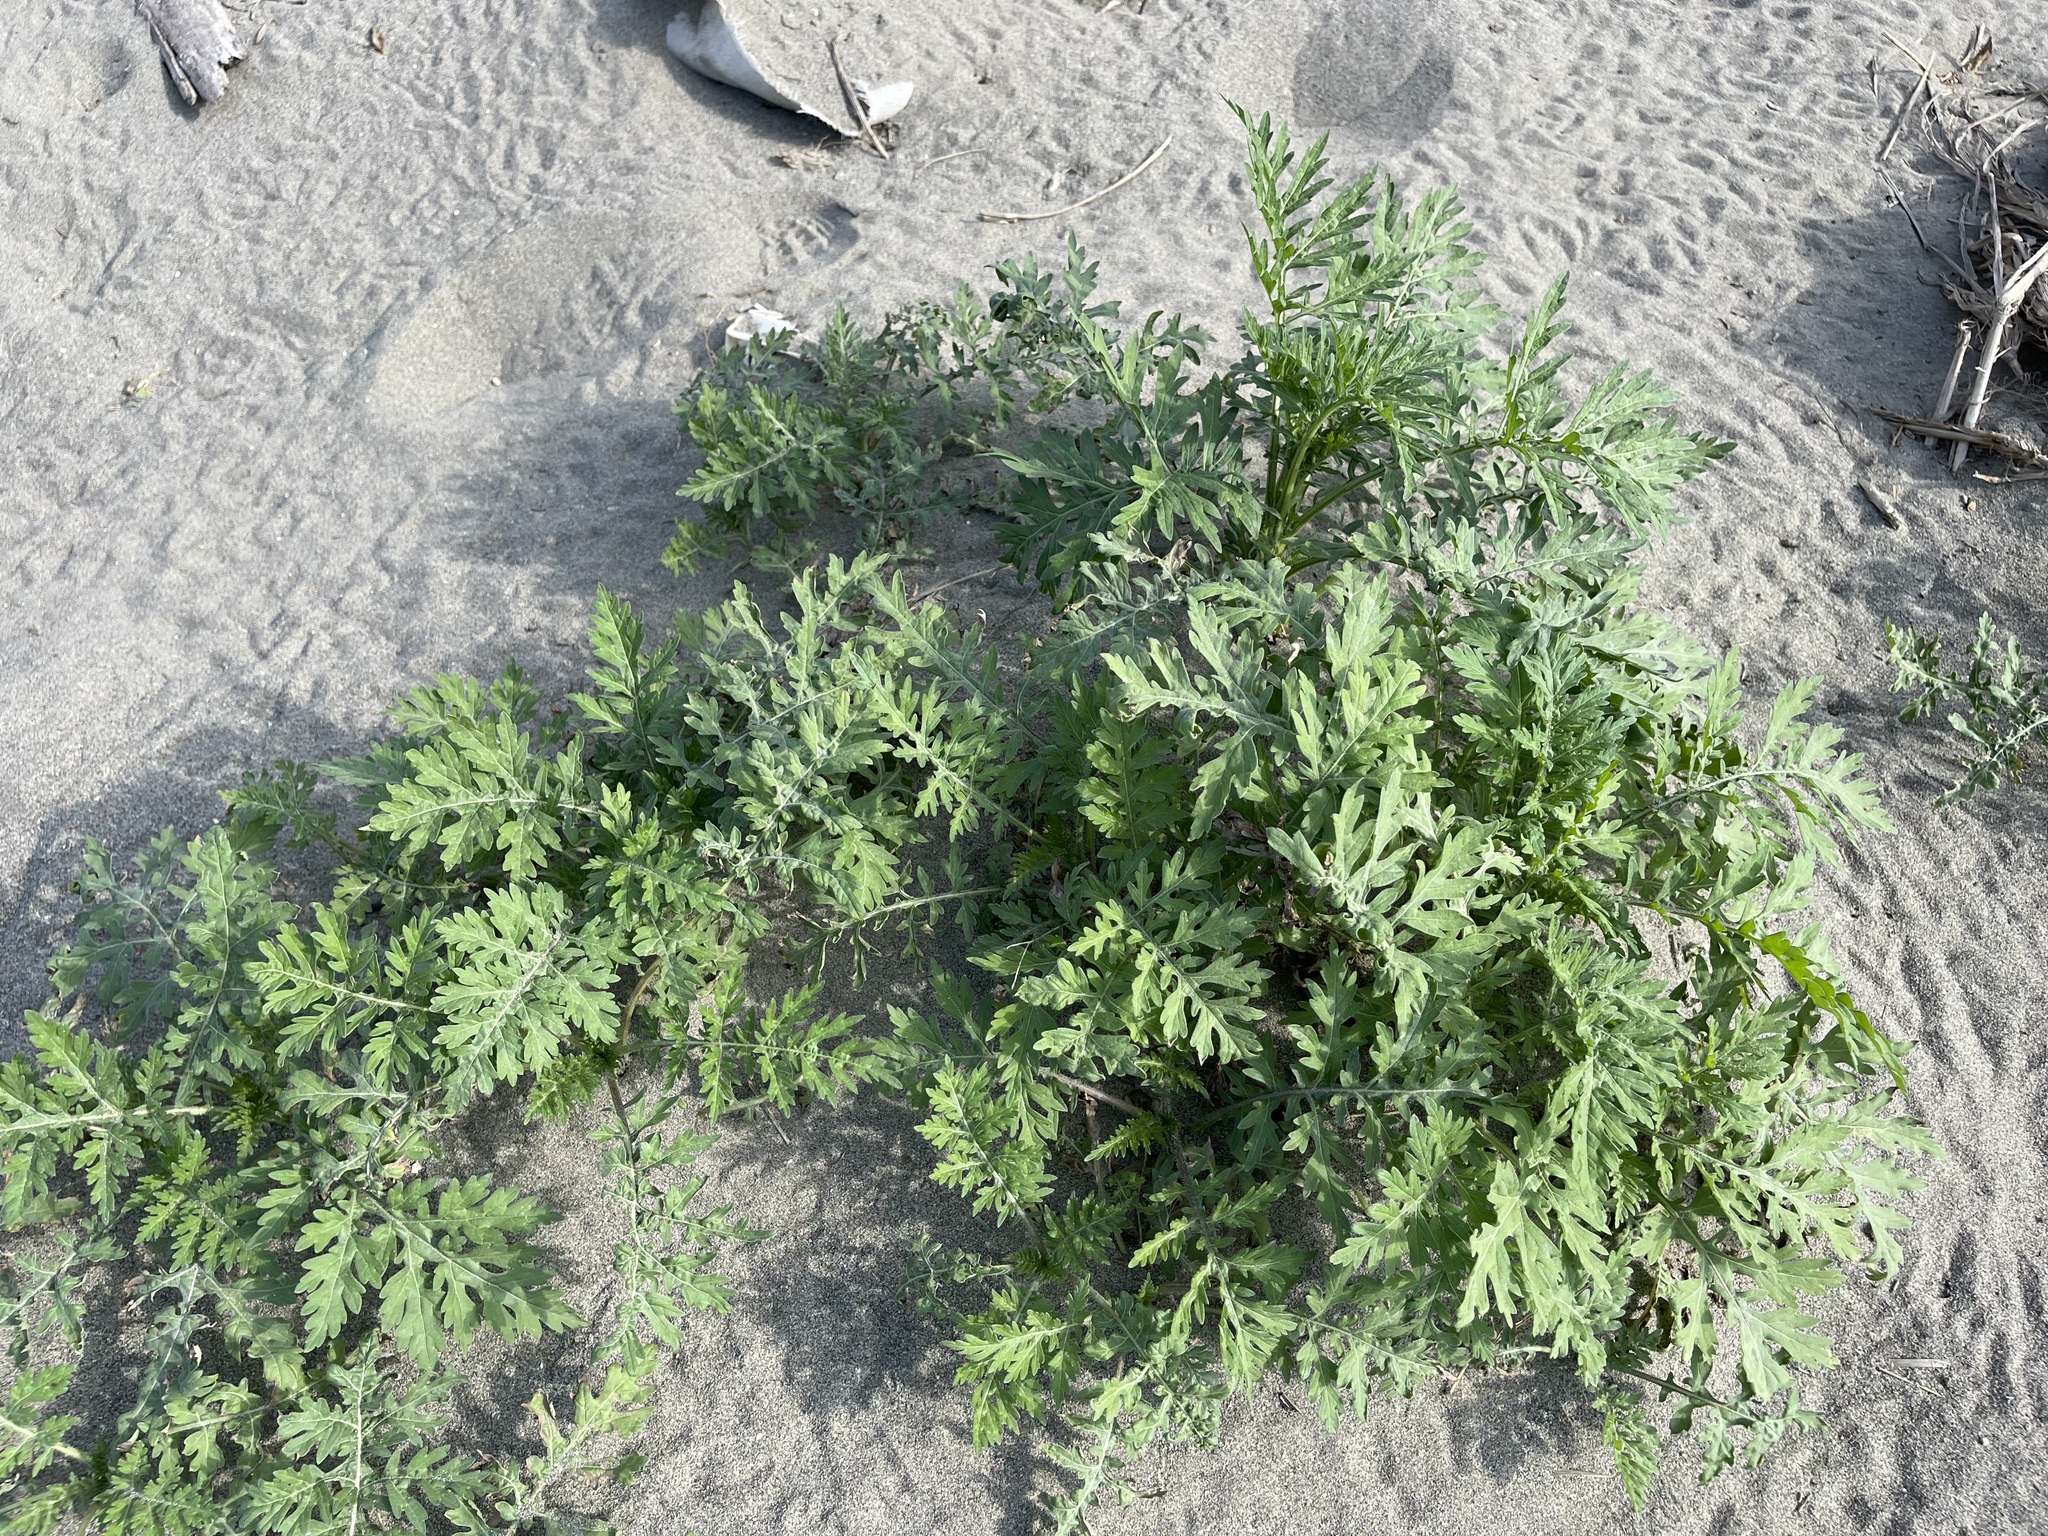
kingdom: Plantae
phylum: Tracheophyta
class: Magnoliopsida
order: Asterales
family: Asteraceae
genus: Parthenium
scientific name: Parthenium hysterophorus
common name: Santa maria feverfew
